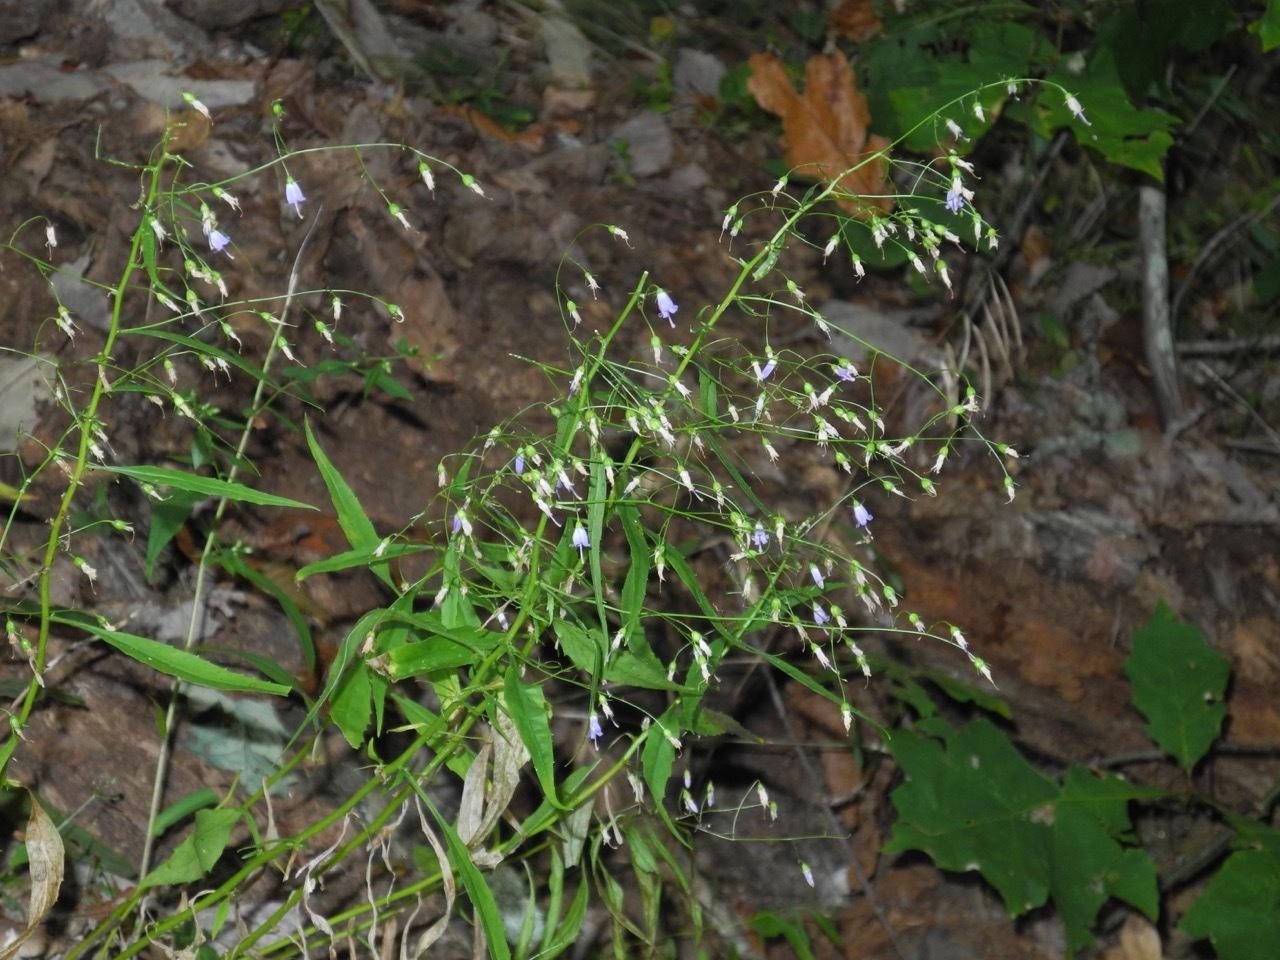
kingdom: Plantae
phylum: Tracheophyta
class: Magnoliopsida
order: Asterales
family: Campanulaceae
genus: Campanula
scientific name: Campanula divaricata
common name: Appalachian bellflower
